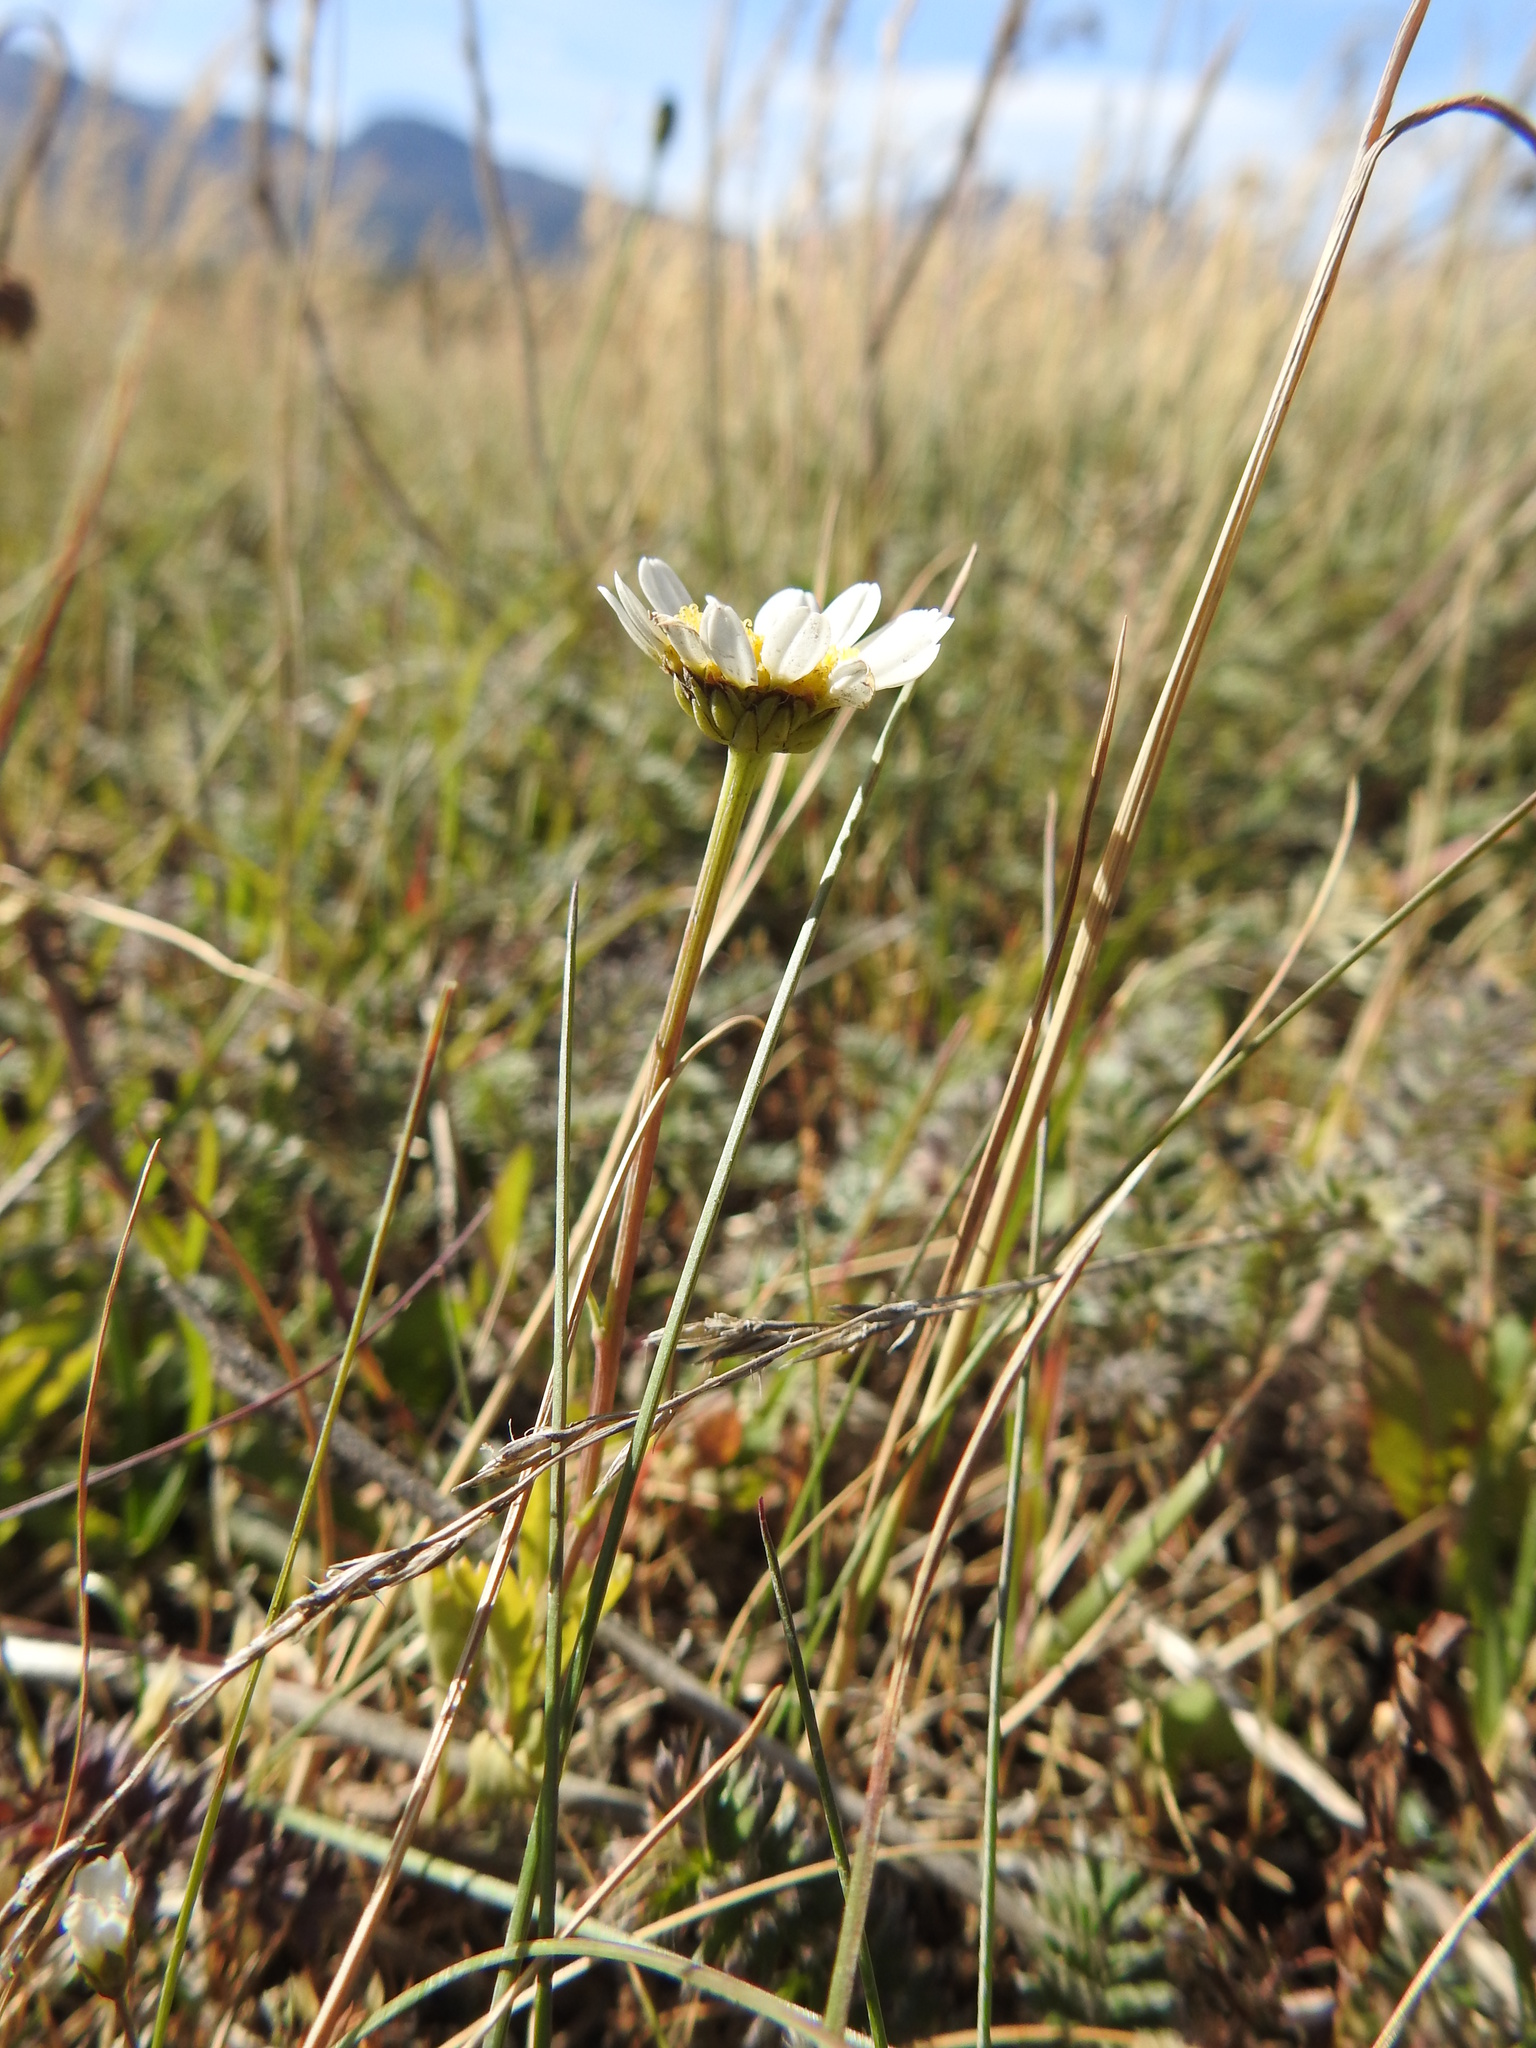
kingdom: Plantae
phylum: Tracheophyta
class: Magnoliopsida
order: Asterales
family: Asteraceae
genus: Leucanthemum
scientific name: Leucanthemum vulgare
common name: Oxeye daisy
